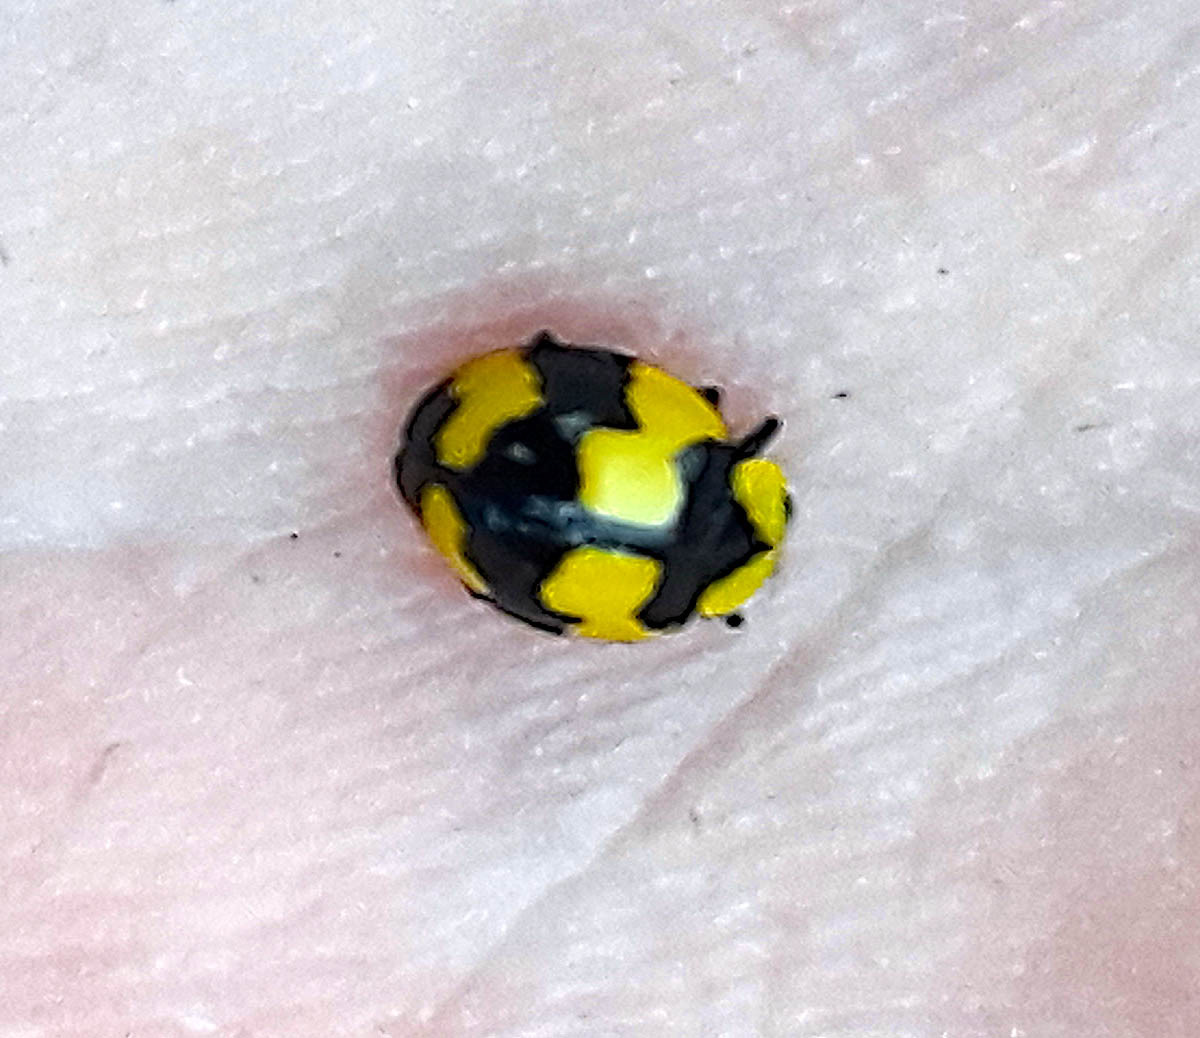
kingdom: Animalia
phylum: Arthropoda
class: Insecta
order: Coleoptera
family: Coccinellidae
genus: Illeis
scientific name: Illeis galbula
